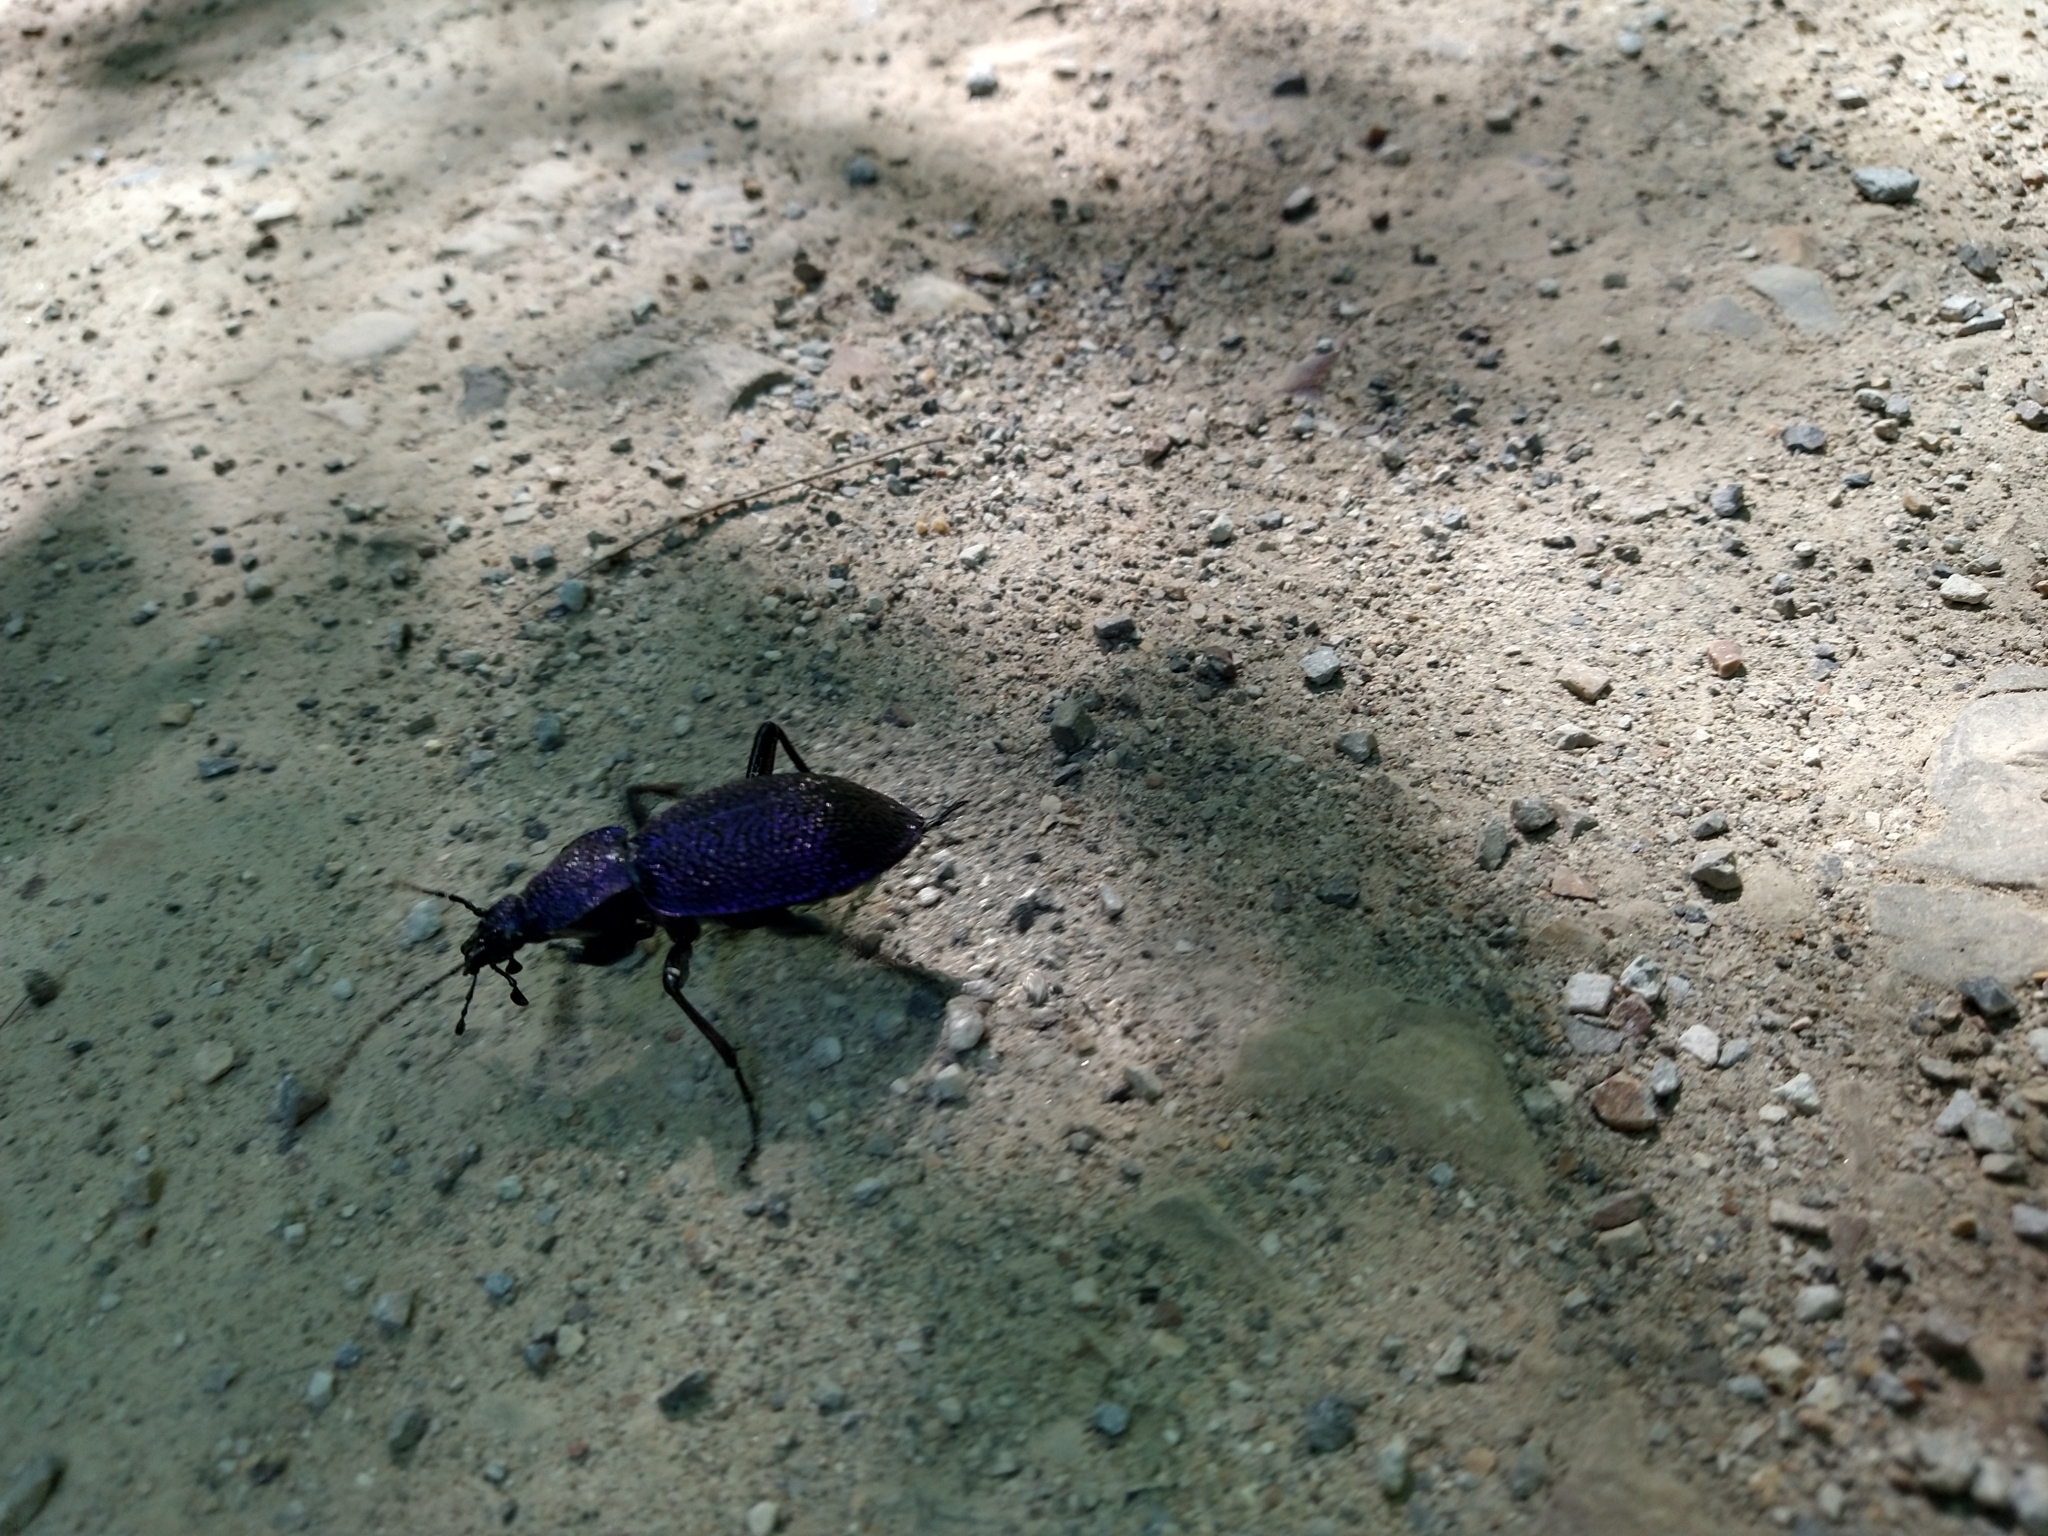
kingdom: Animalia
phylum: Arthropoda
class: Insecta
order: Coleoptera
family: Carabidae
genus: Carabus
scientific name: Carabus scabrosus
